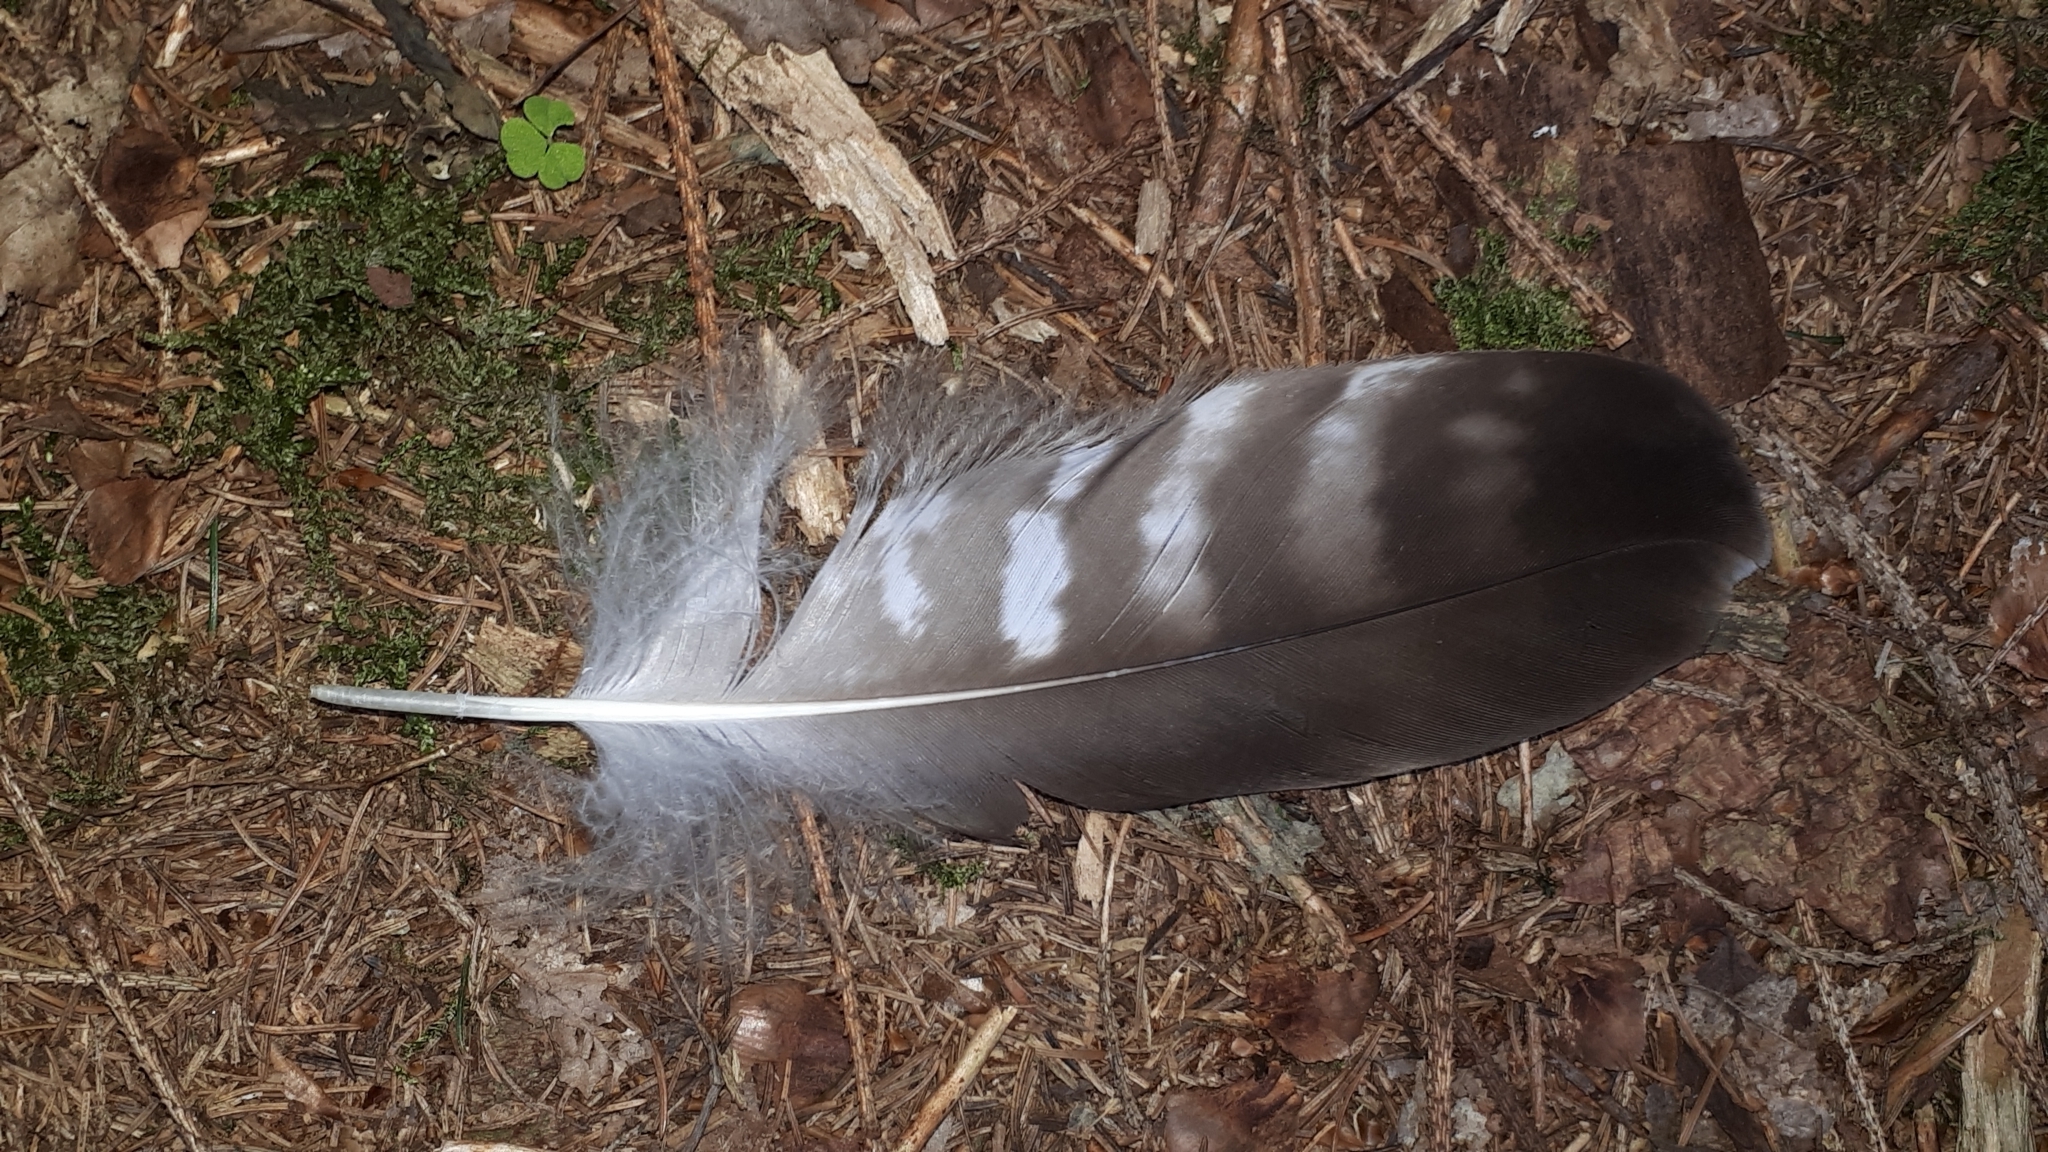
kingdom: Animalia
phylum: Chordata
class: Aves
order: Accipitriformes
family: Accipitridae
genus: Buteo
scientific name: Buteo buteo
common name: Common buzzard
